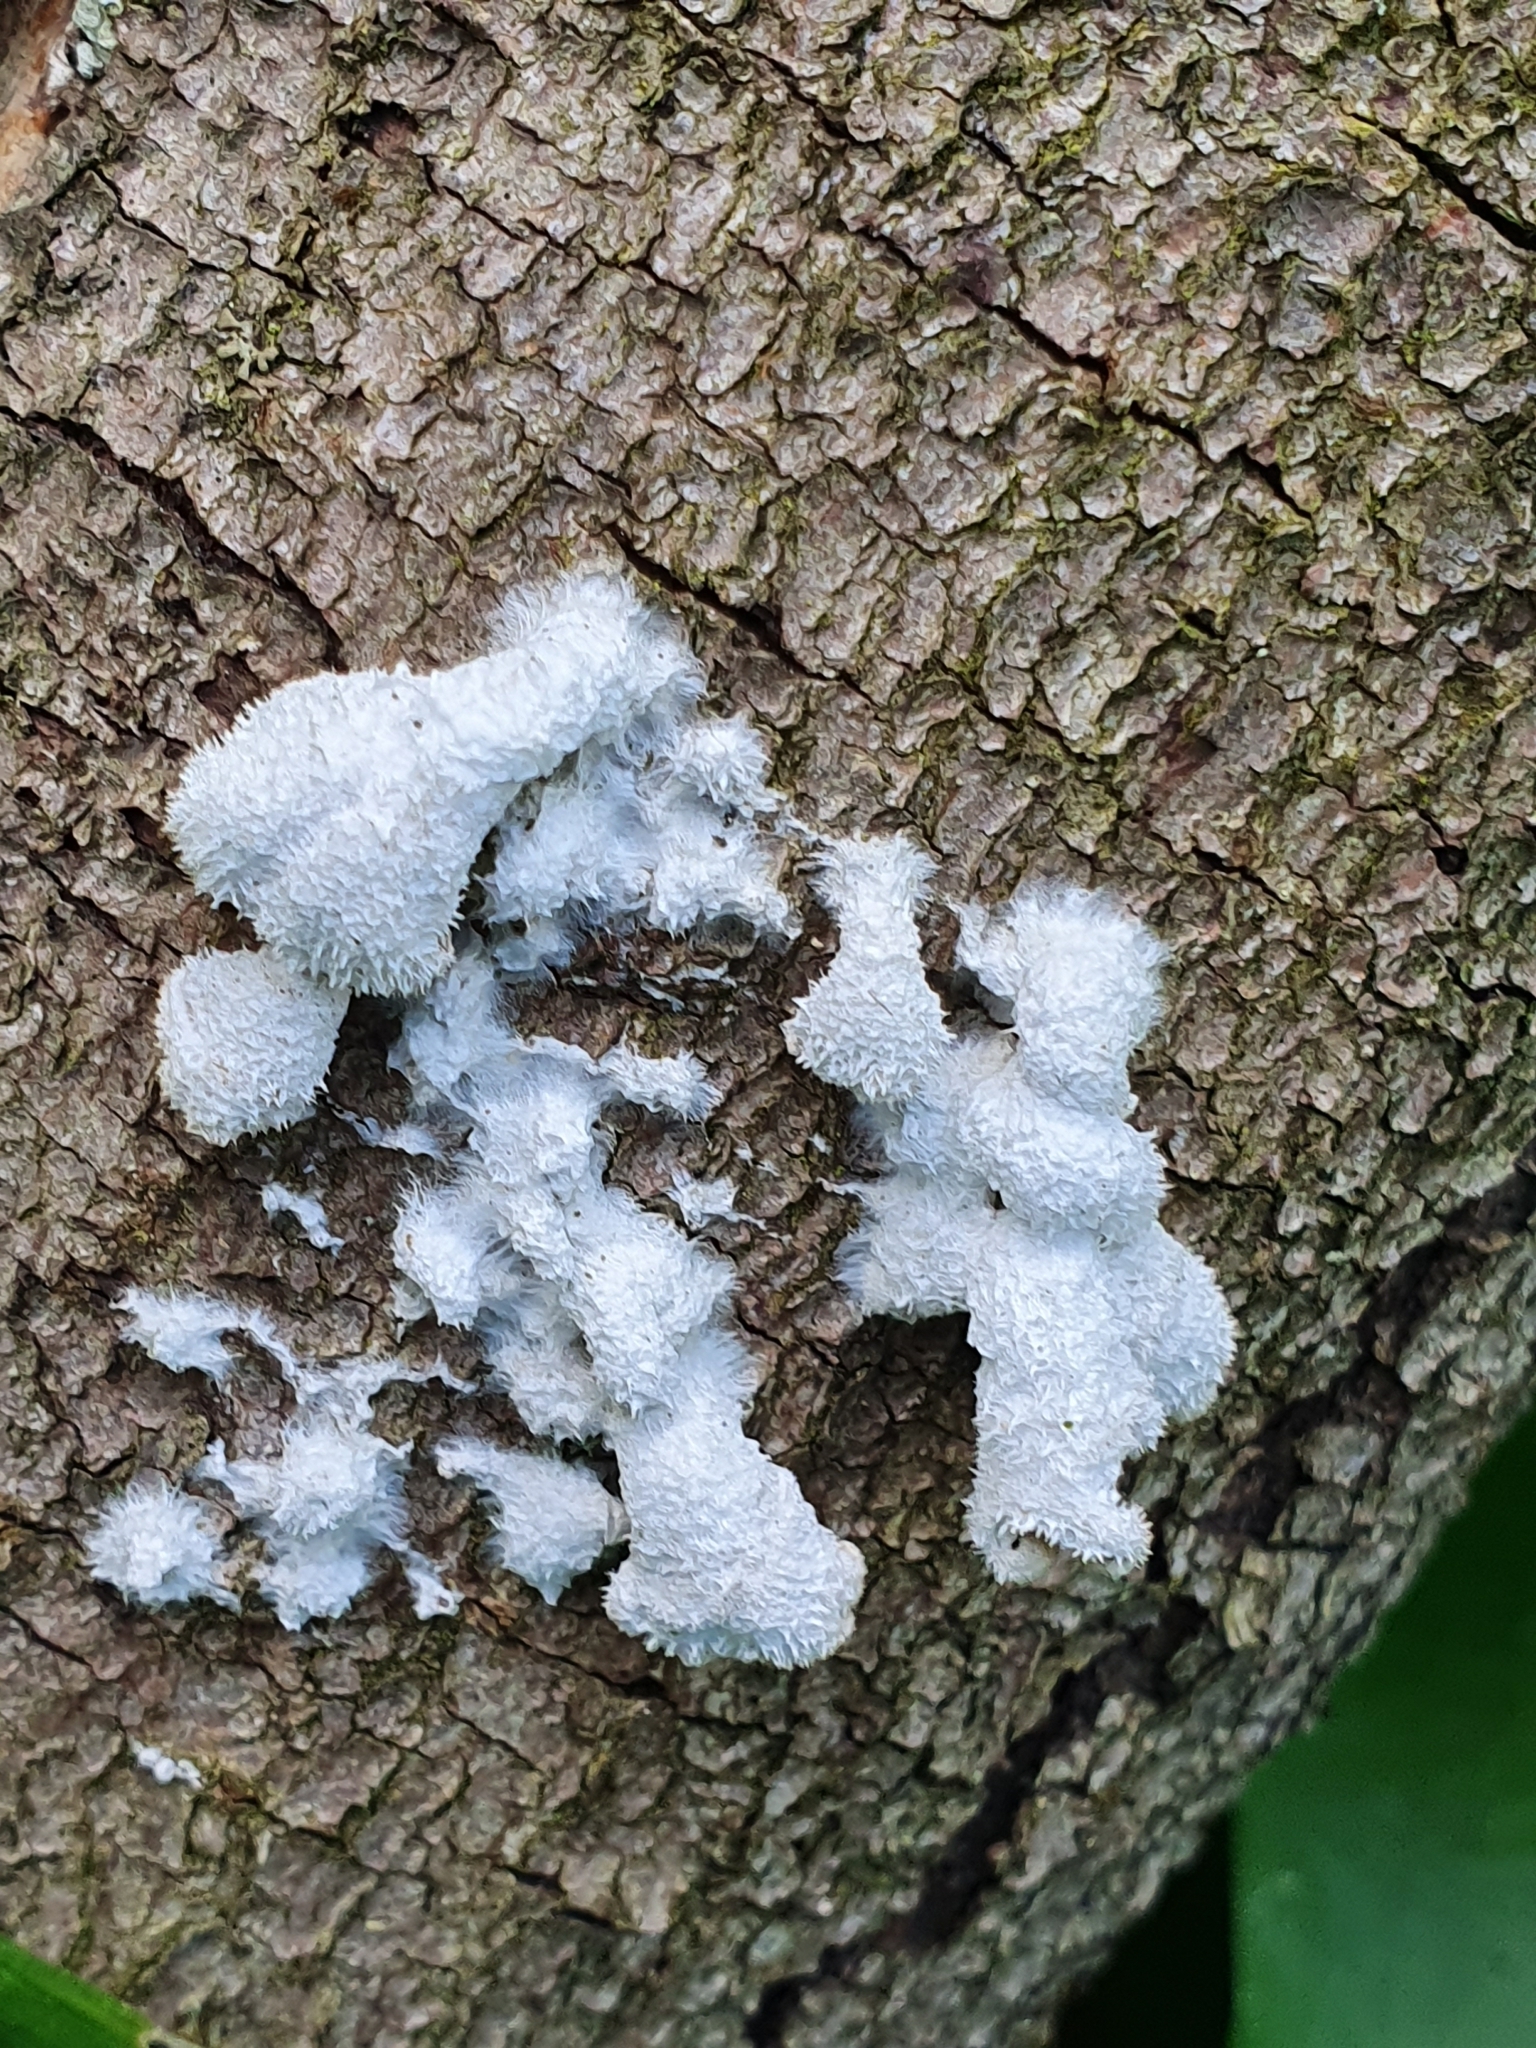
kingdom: Fungi
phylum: Basidiomycota
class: Agaricomycetes
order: Agaricales
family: Schizophyllaceae
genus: Schizophyllum
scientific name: Schizophyllum commune
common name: Common porecrust
